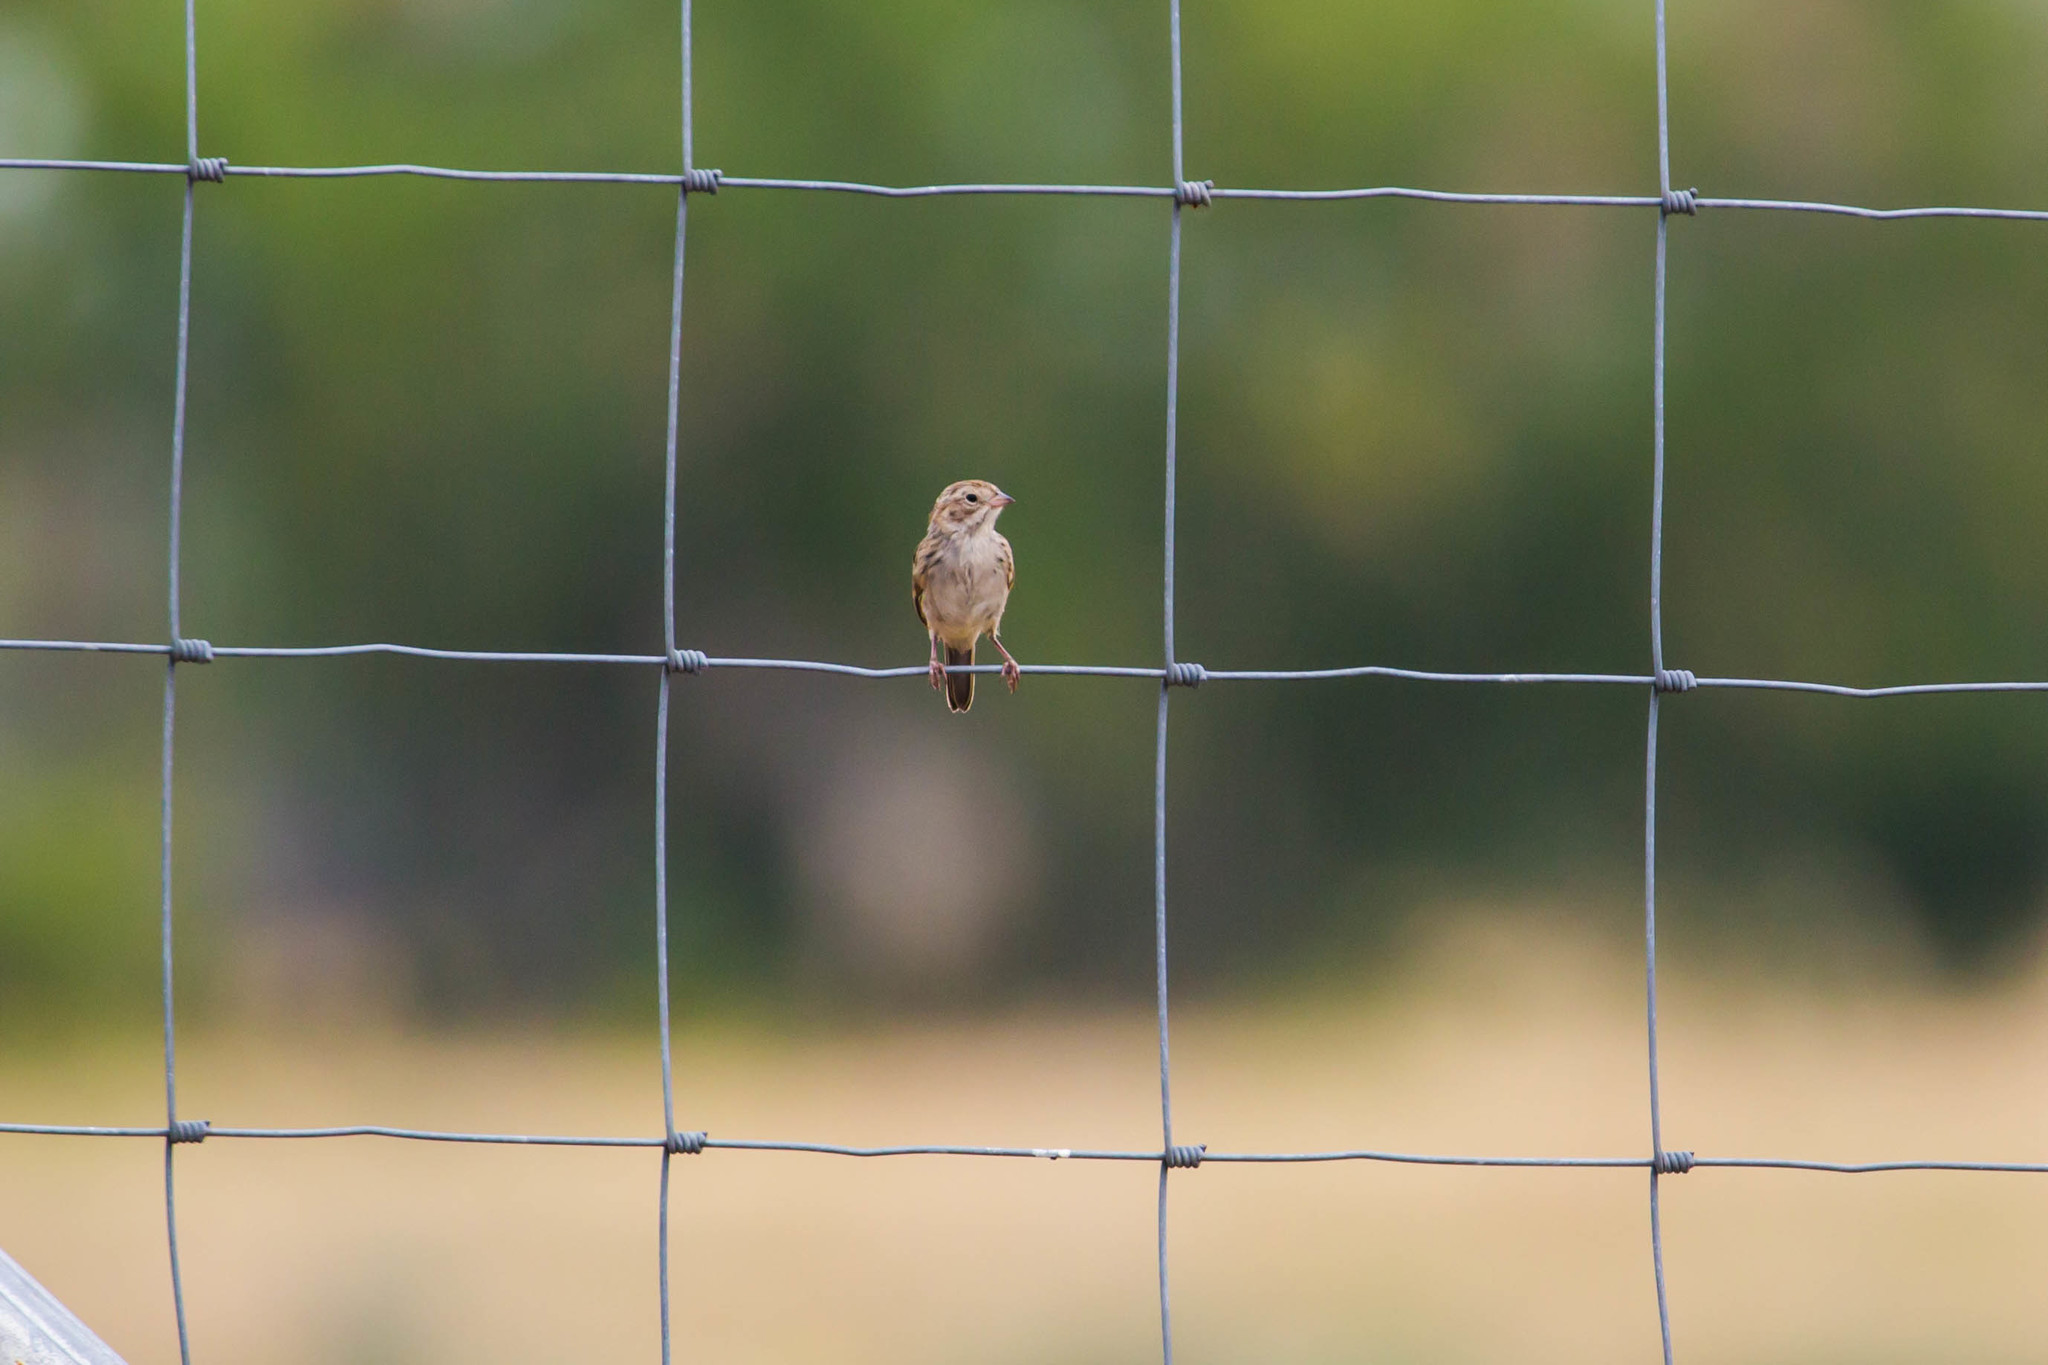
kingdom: Animalia
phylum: Chordata
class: Aves
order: Passeriformes
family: Passerellidae
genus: Spizella
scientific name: Spizella breweri
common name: Brewer's sparrow
